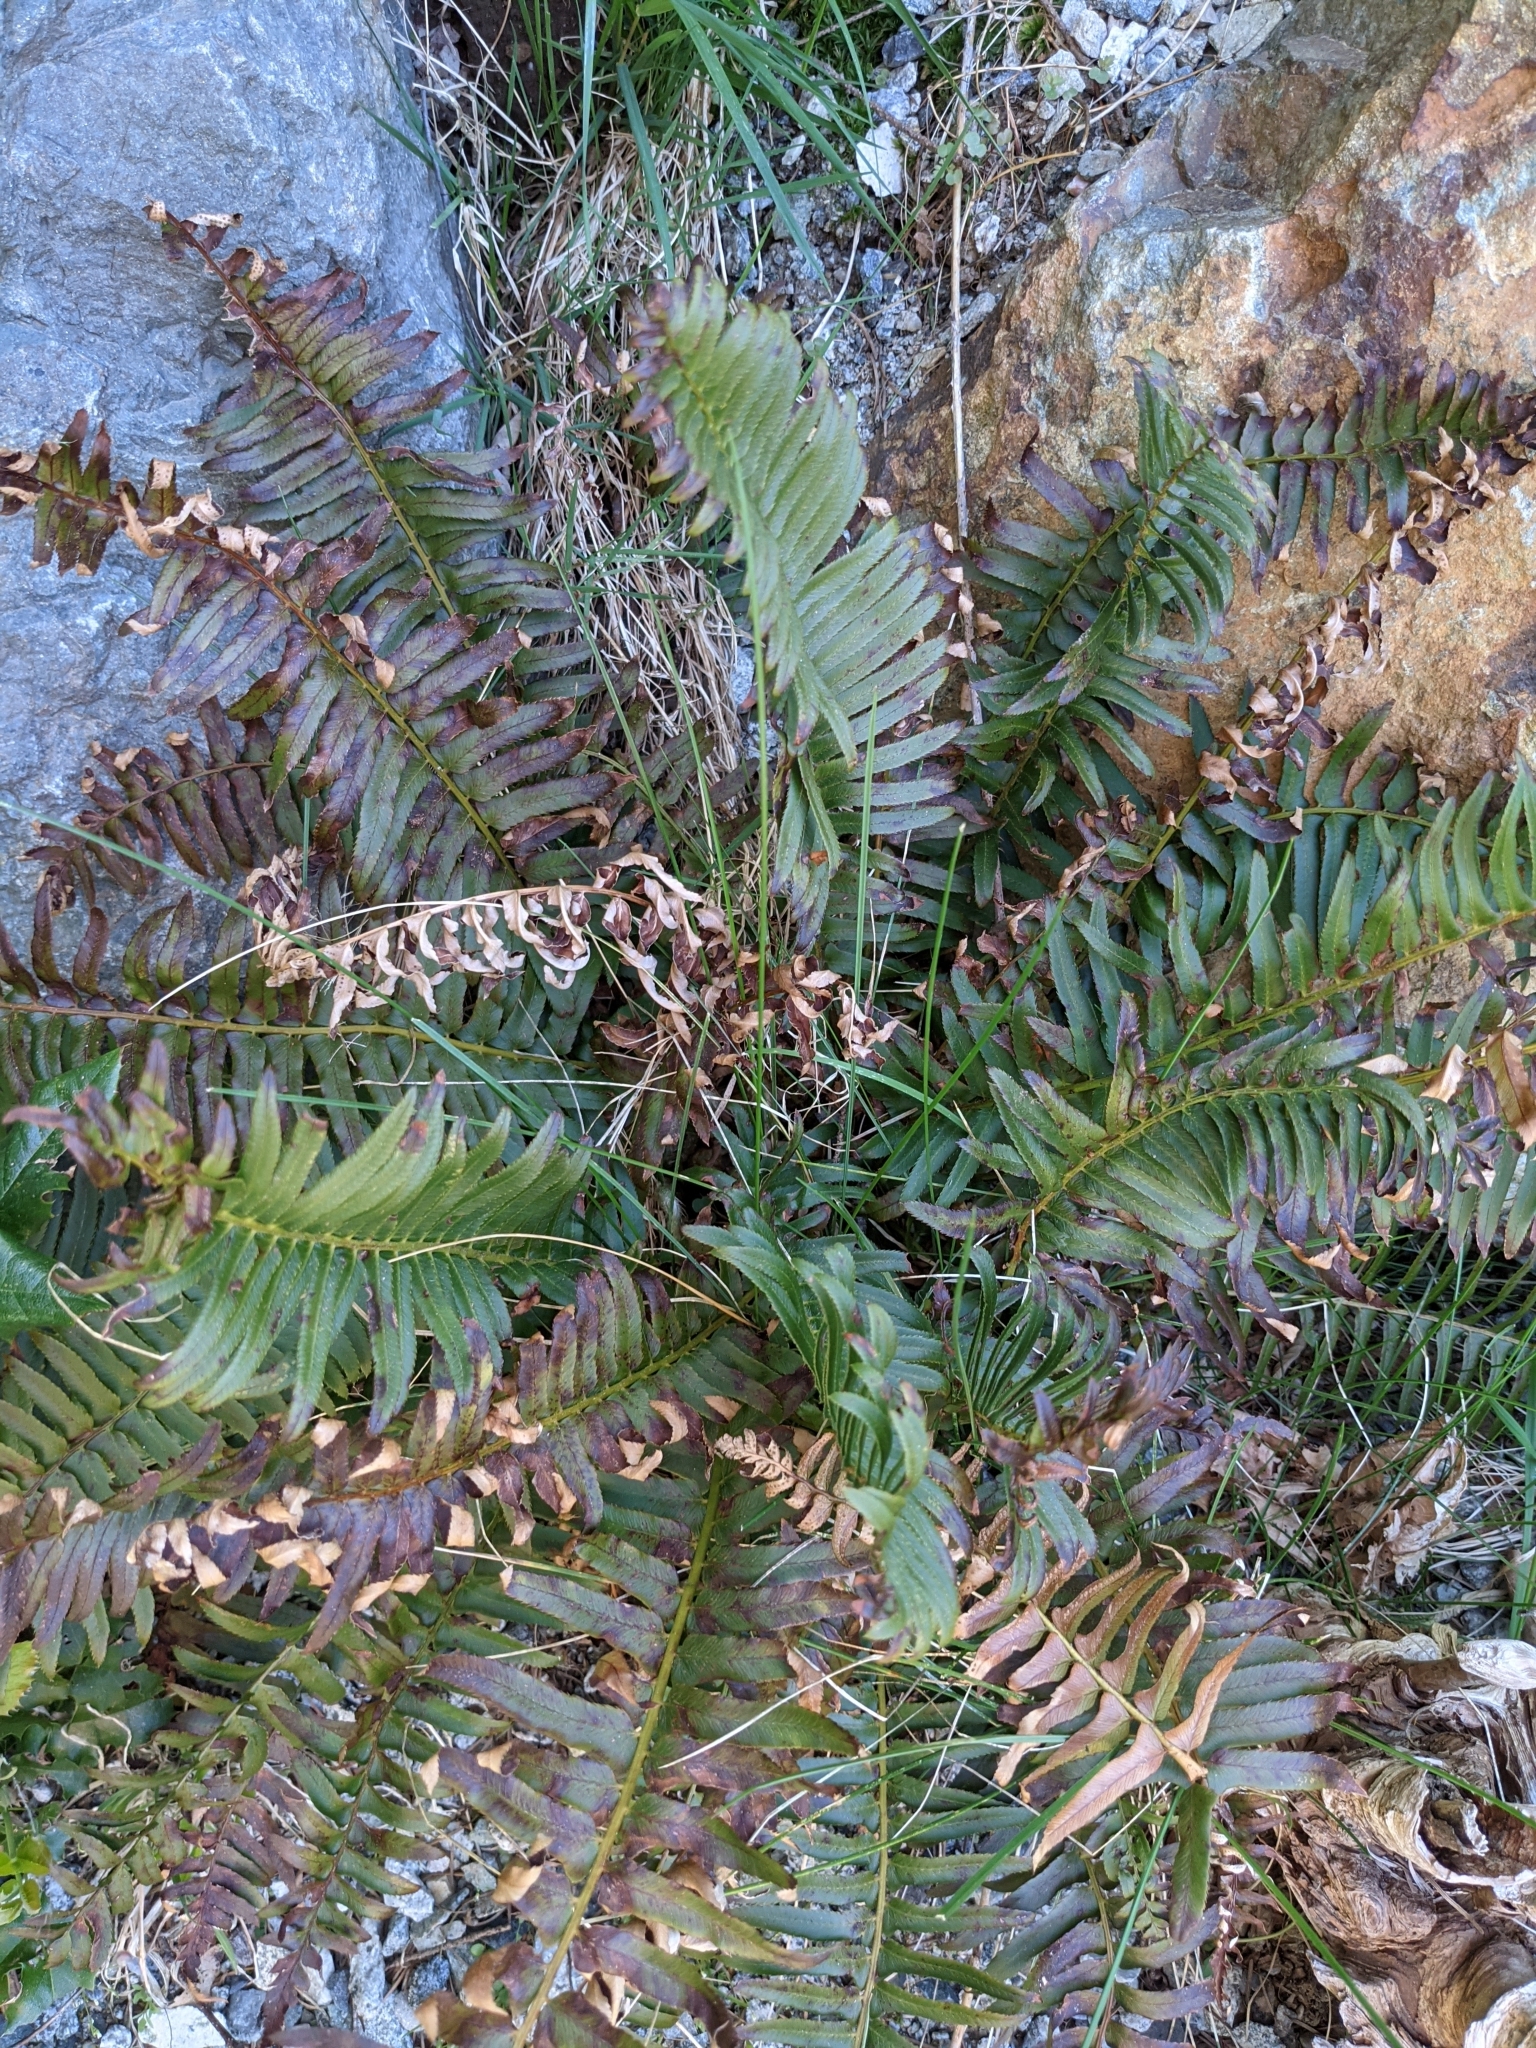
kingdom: Plantae
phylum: Tracheophyta
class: Polypodiopsida
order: Polypodiales
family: Dryopteridaceae
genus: Polystichum
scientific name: Polystichum munitum
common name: Western sword-fern
